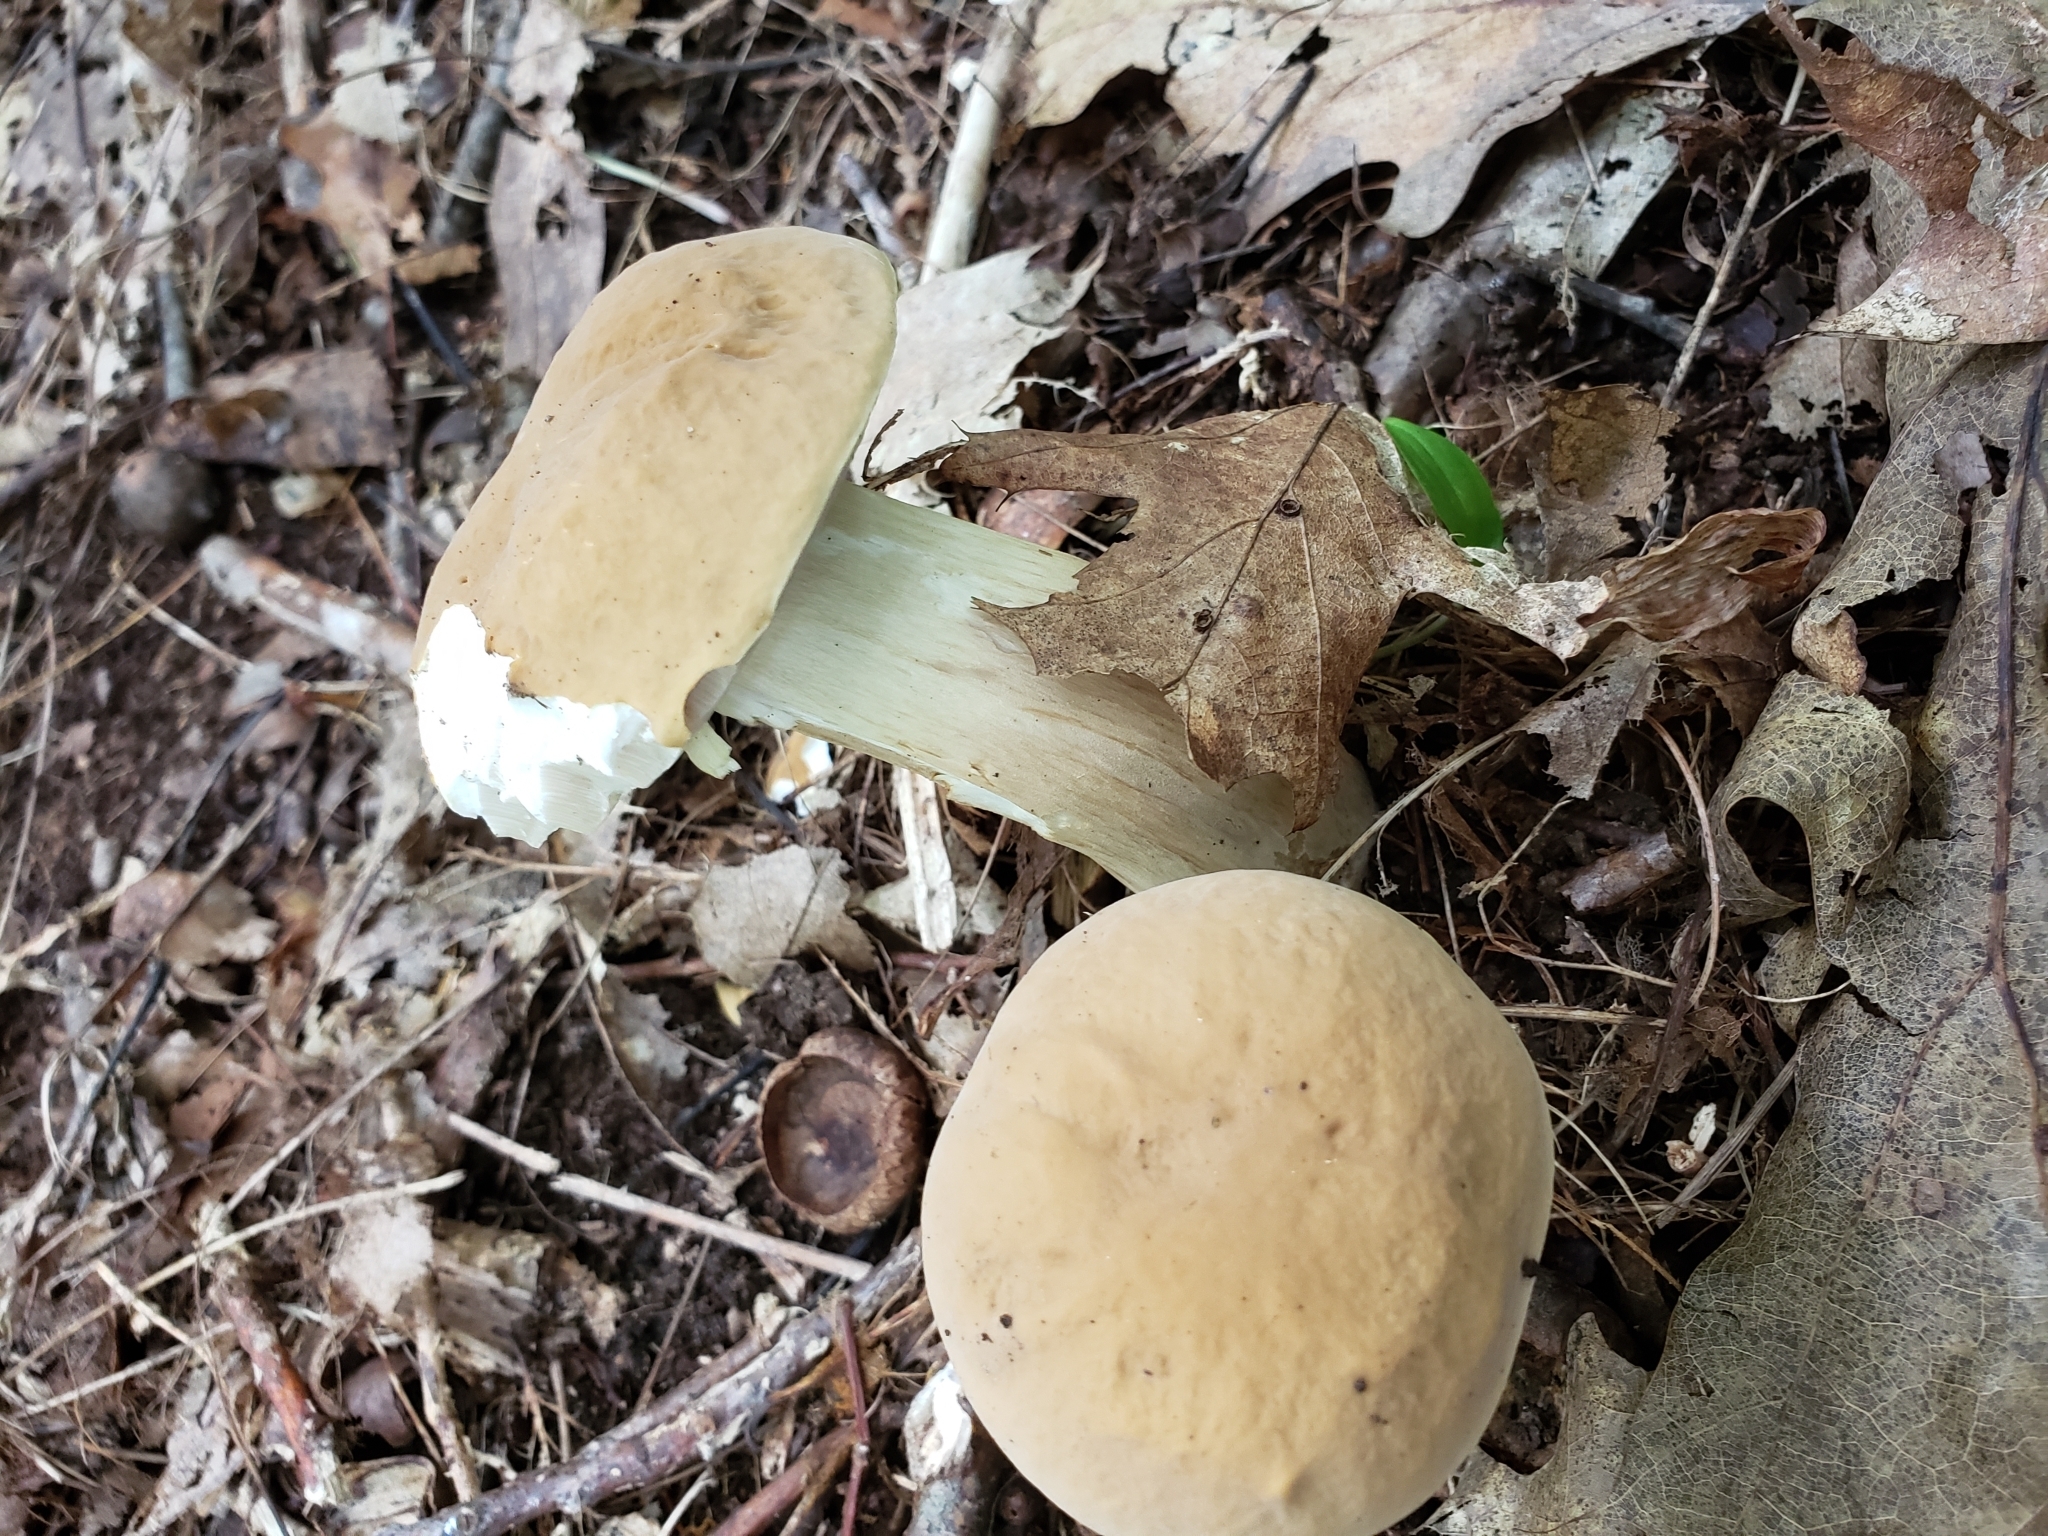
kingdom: Fungi
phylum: Basidiomycota
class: Agaricomycetes
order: Boletales
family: Boletaceae
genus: Boletus
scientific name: Boletus nobilis
